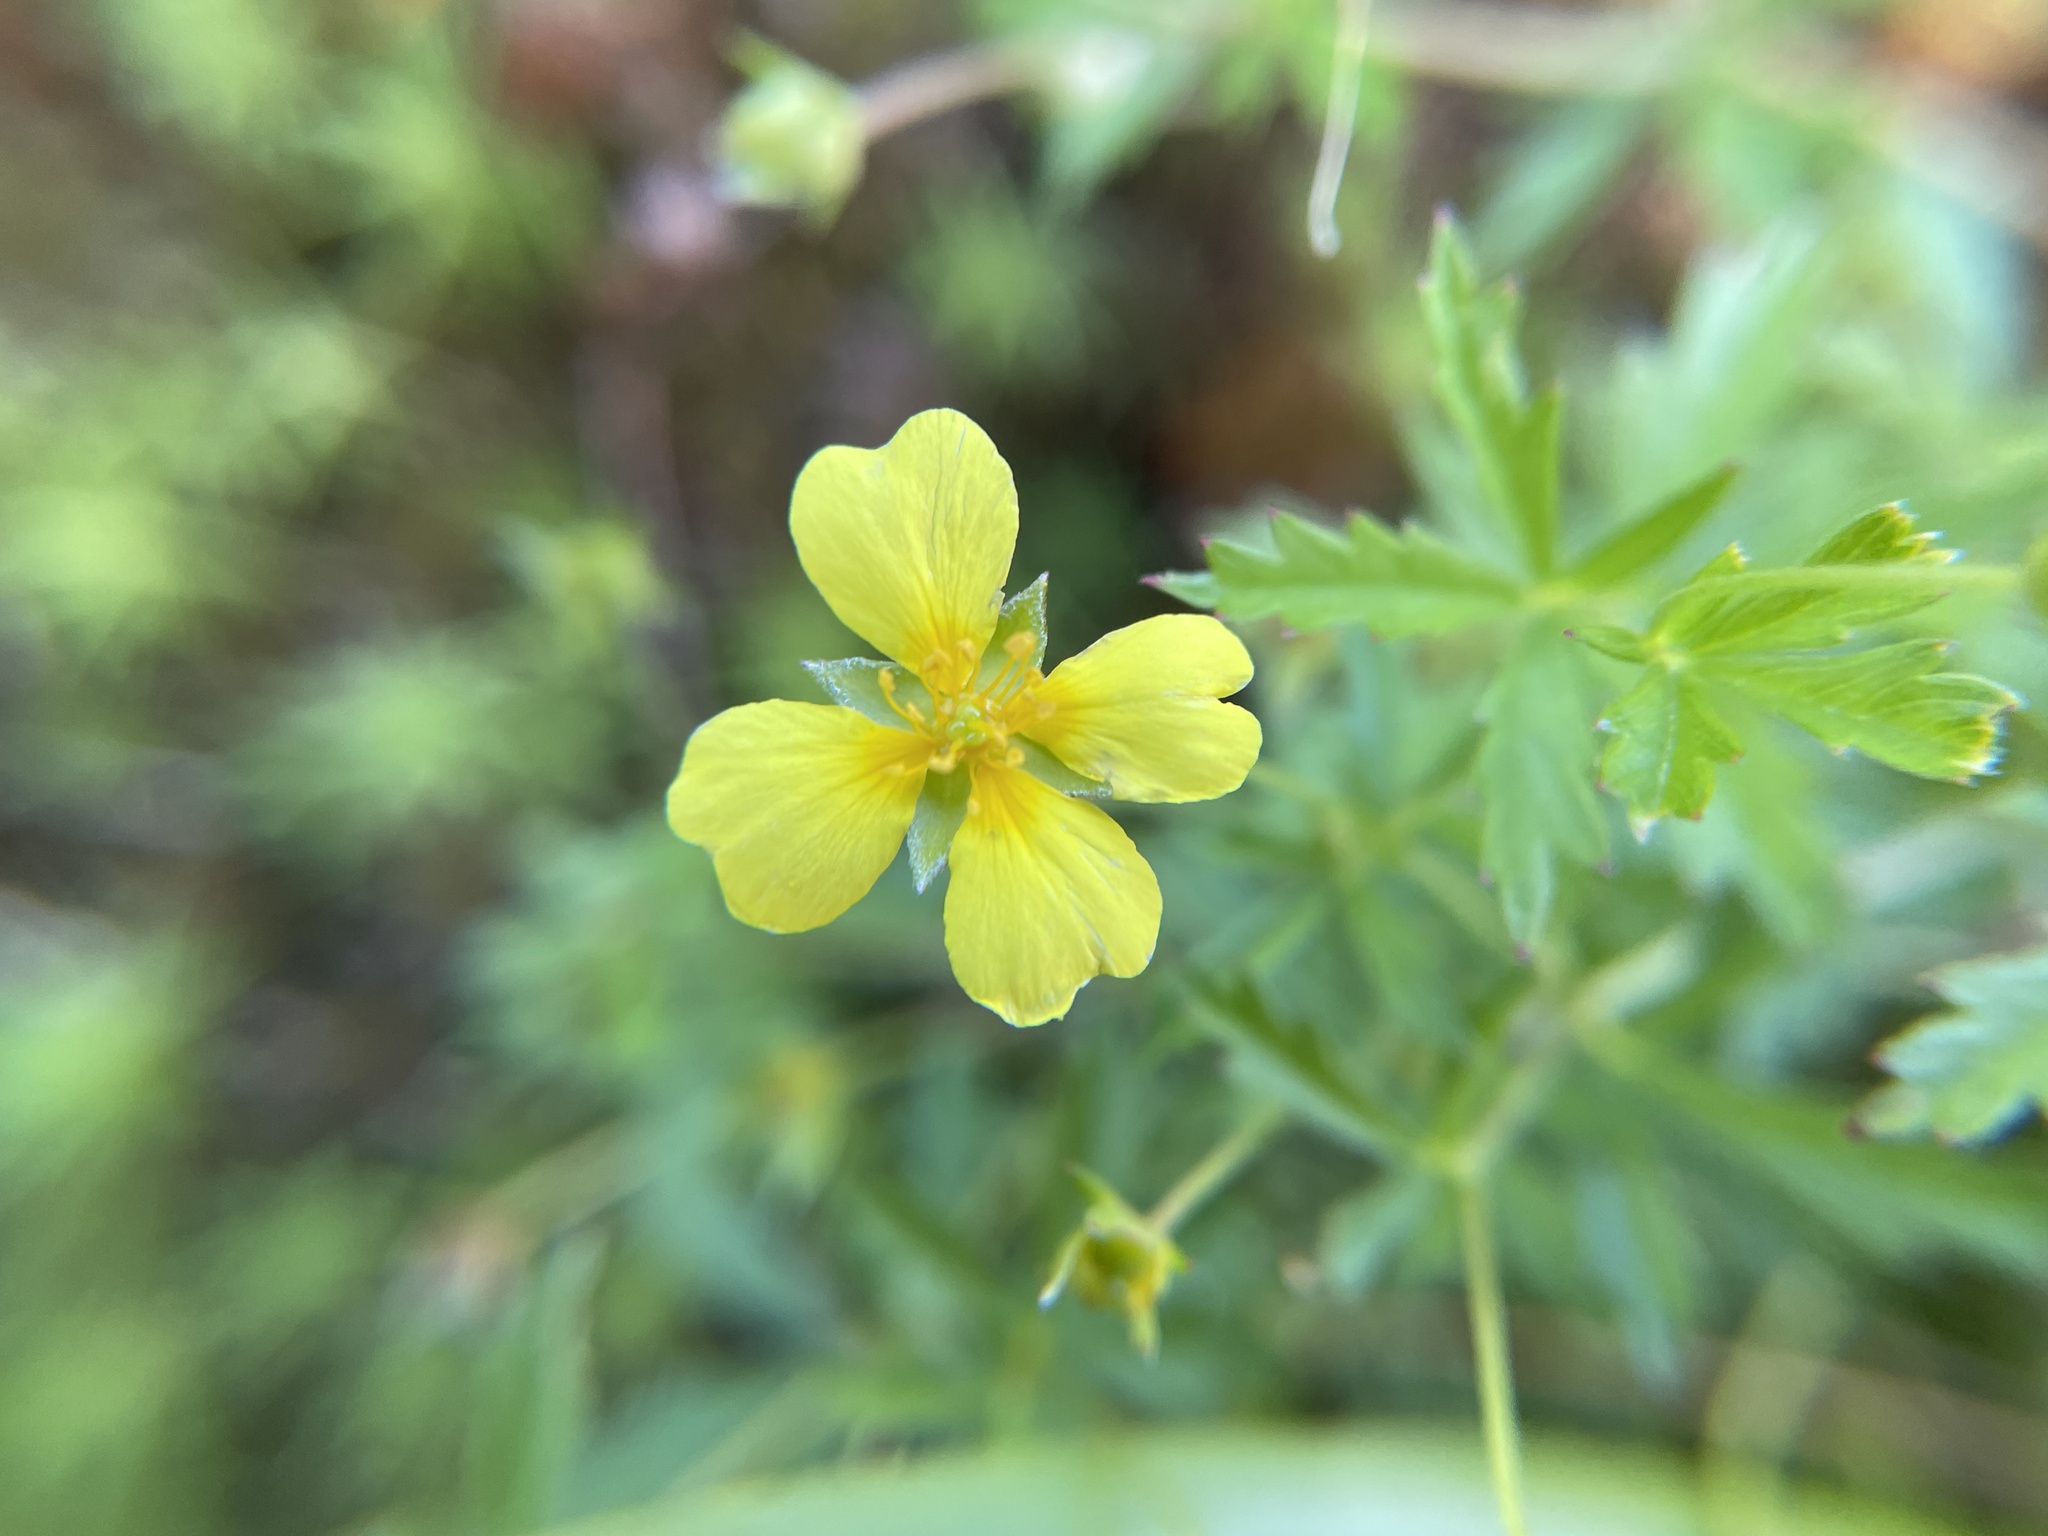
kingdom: Plantae
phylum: Tracheophyta
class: Magnoliopsida
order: Rosales
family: Rosaceae
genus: Potentilla
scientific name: Potentilla erecta
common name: Tormentil
